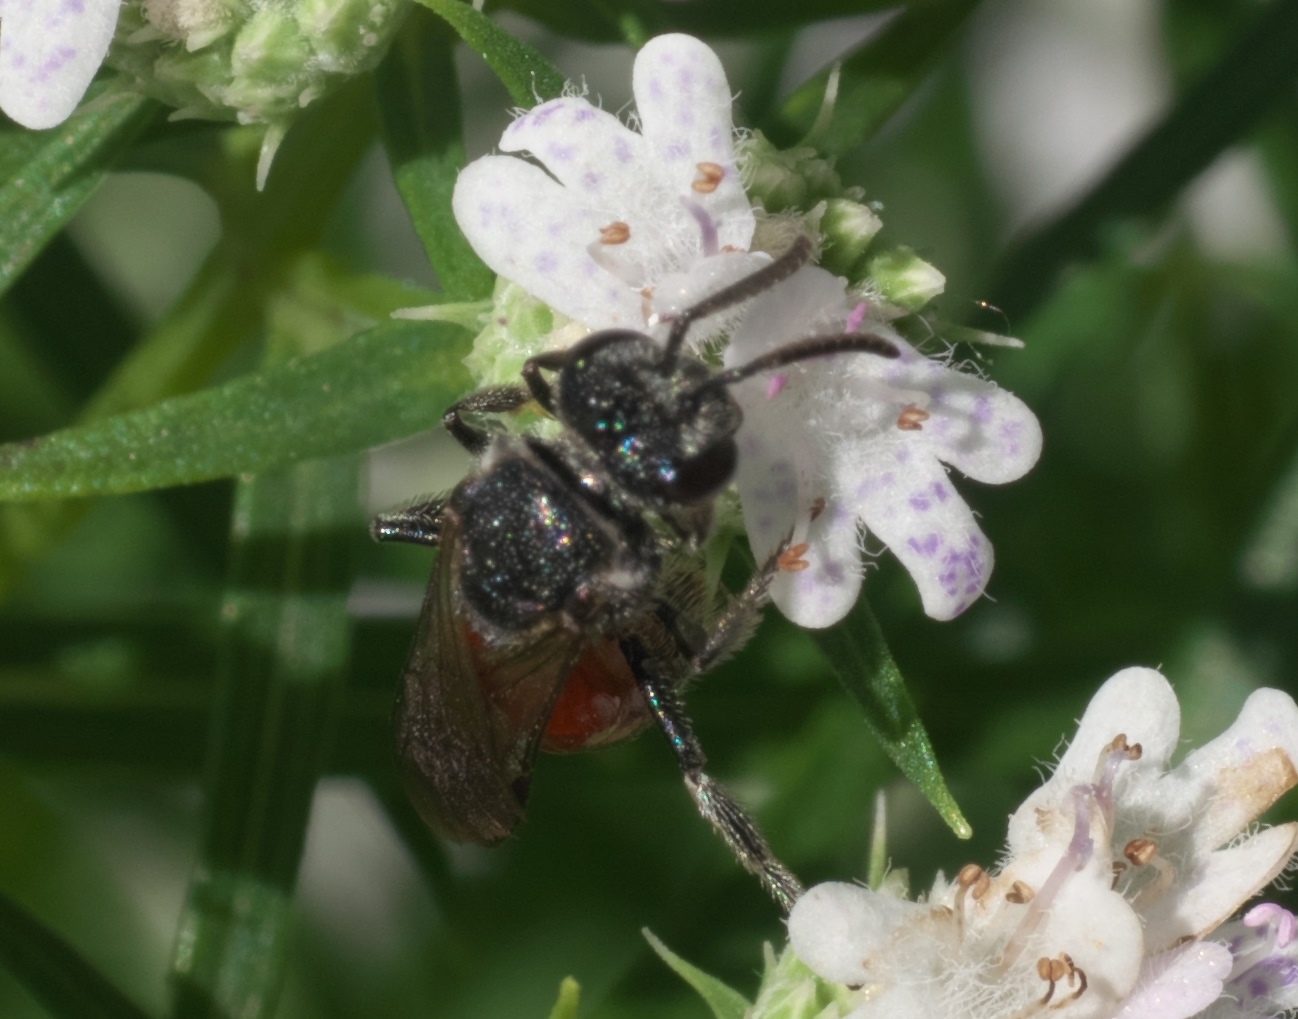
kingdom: Animalia
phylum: Arthropoda
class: Insecta
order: Hymenoptera
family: Halictidae
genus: Sphecodes
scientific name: Sphecodes heraclei
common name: Cyclops cuckoo sweat bee
